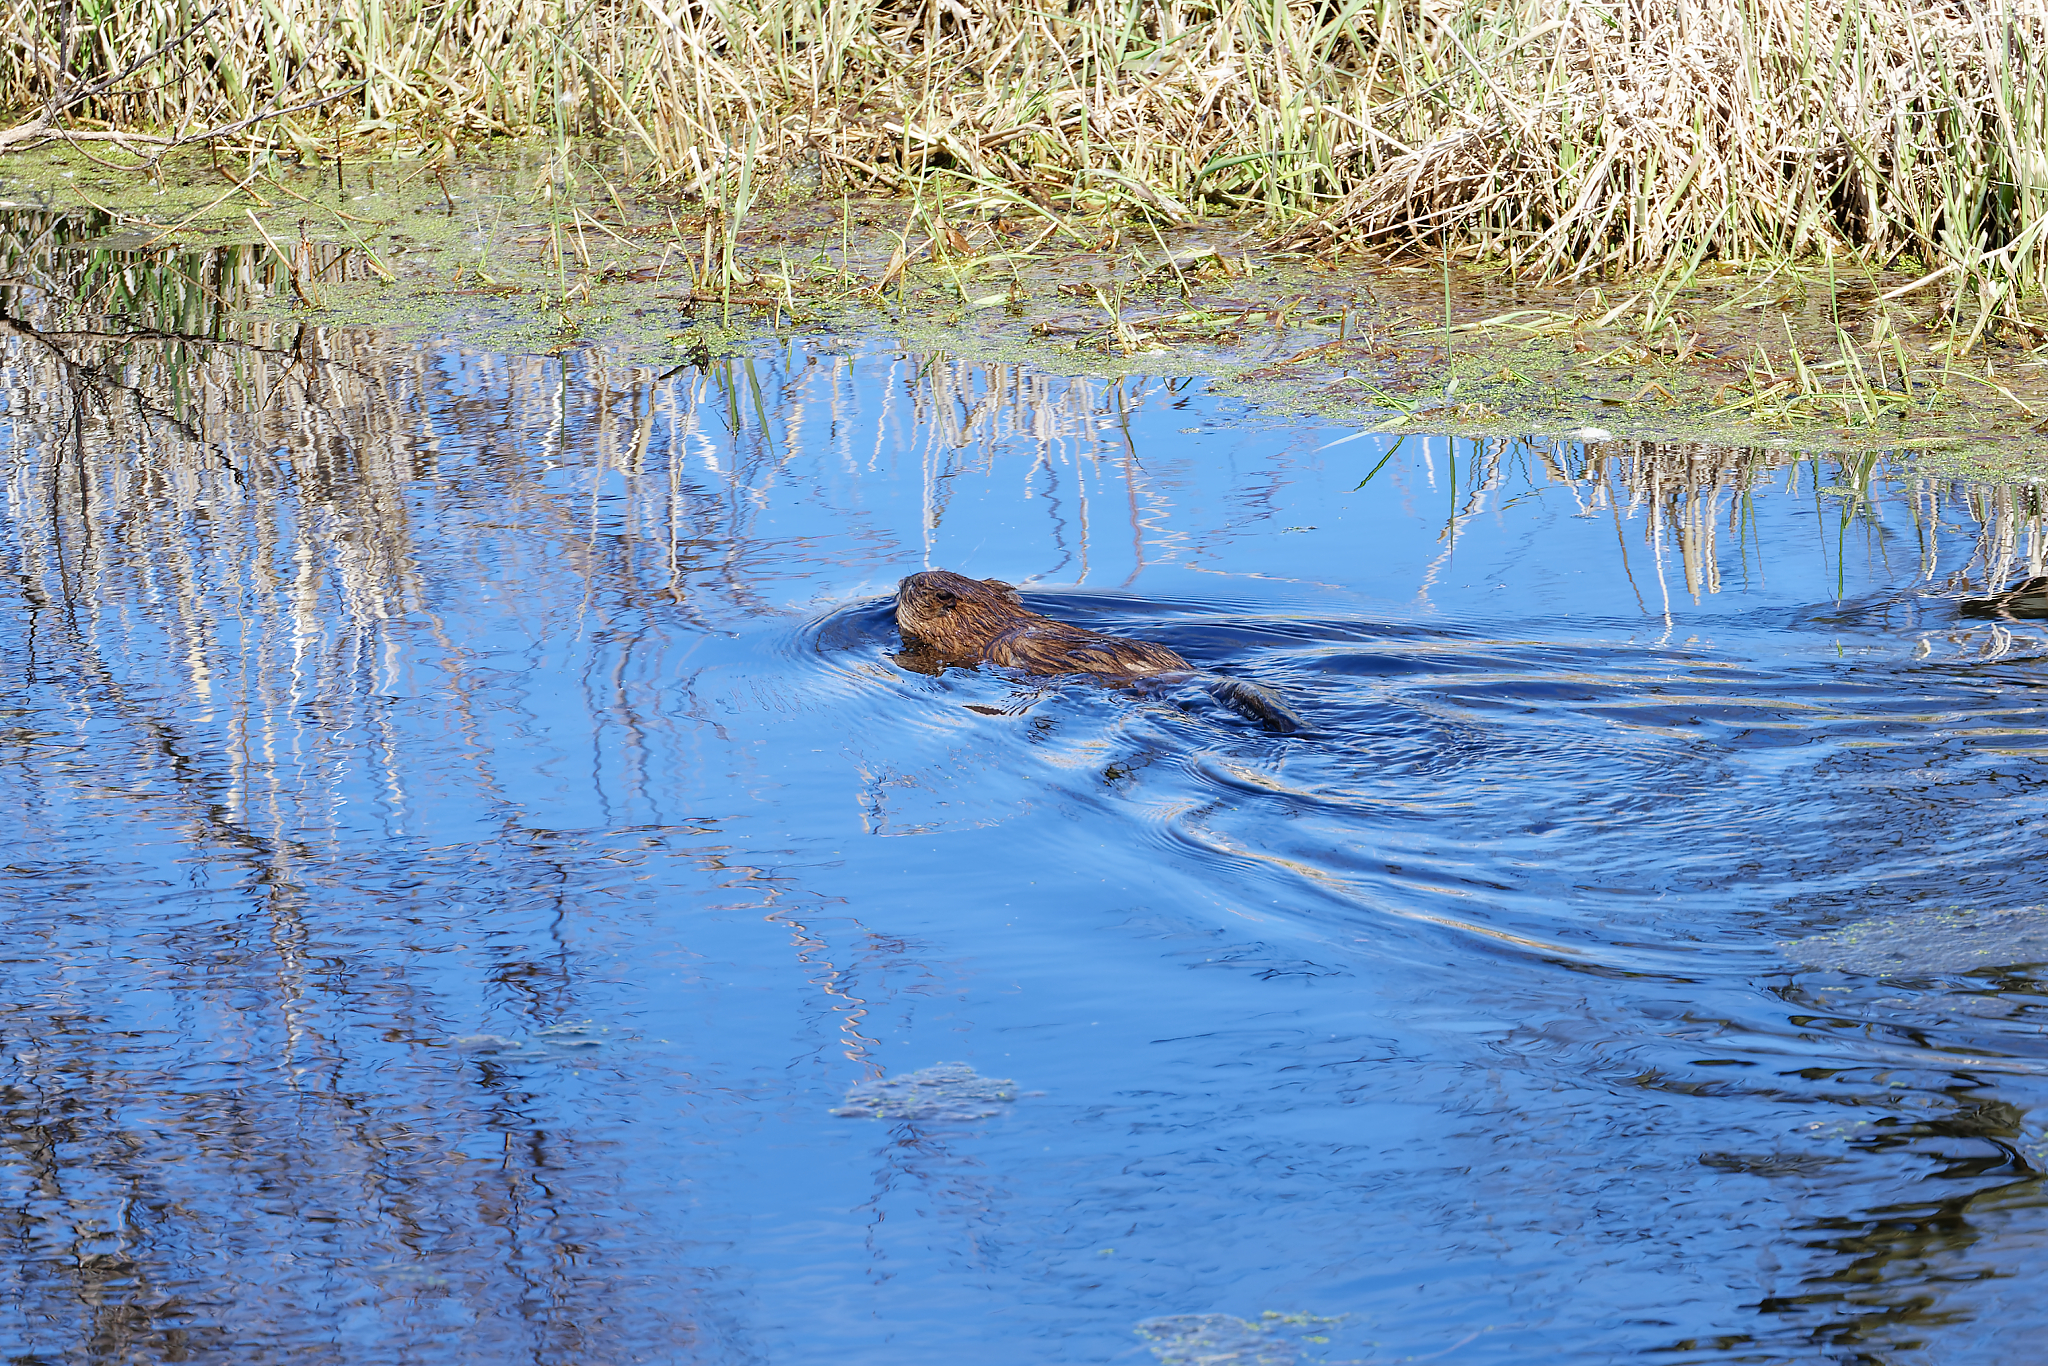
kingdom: Animalia
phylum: Chordata
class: Mammalia
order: Rodentia
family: Cricetidae
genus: Ondatra
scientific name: Ondatra zibethicus
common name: Muskrat
